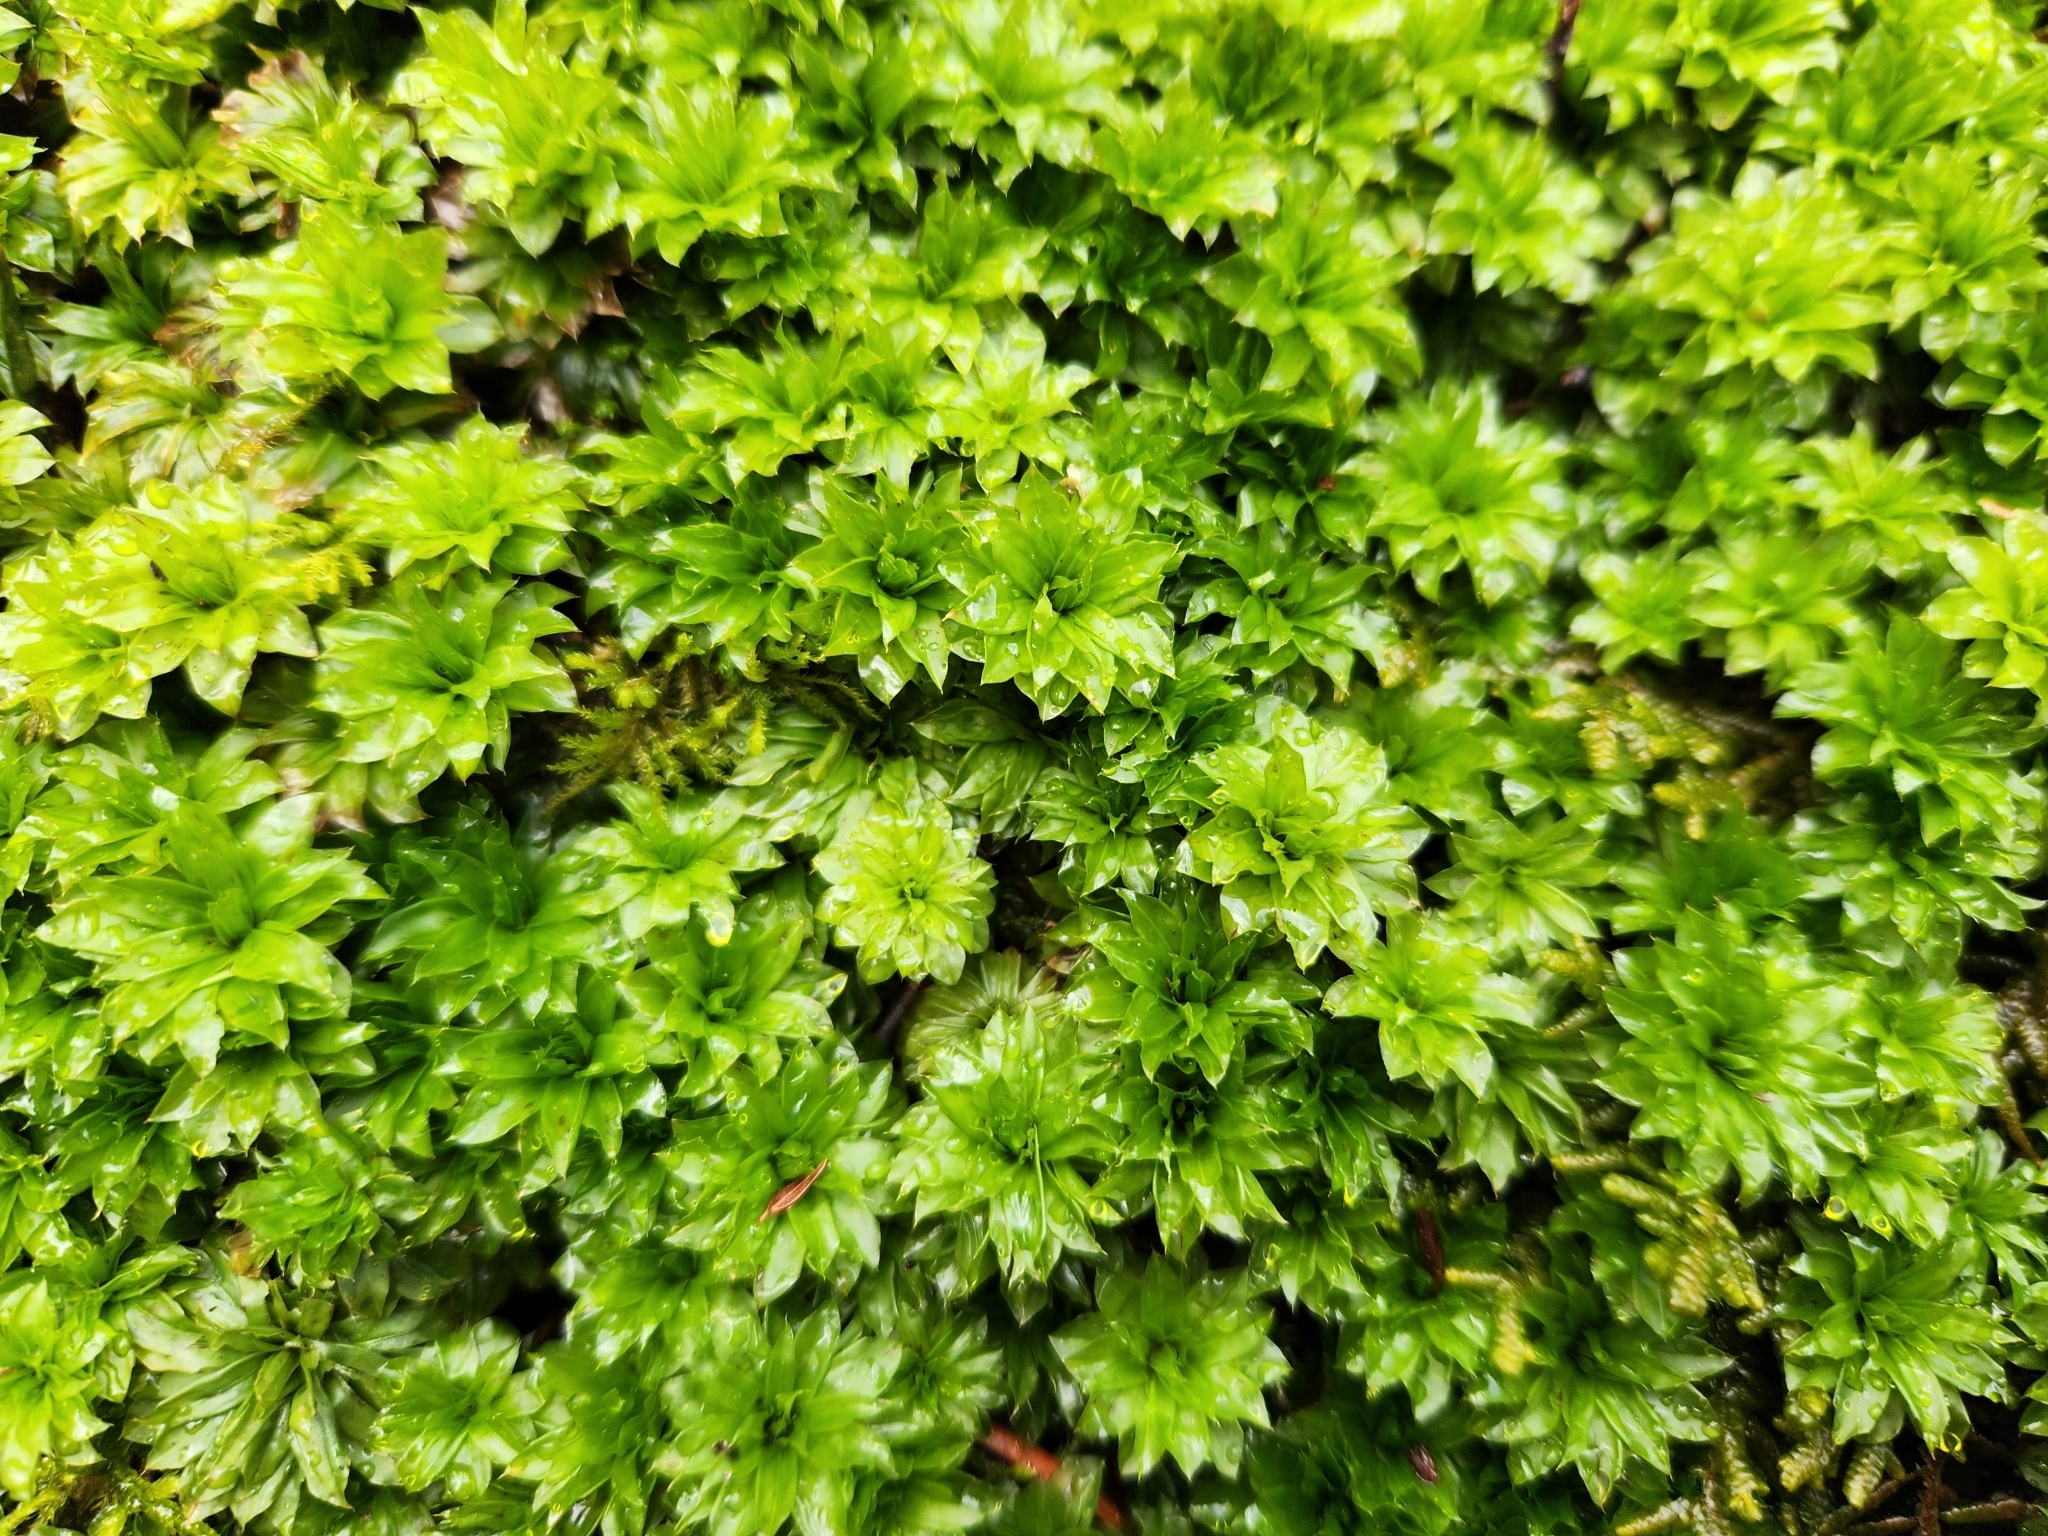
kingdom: Plantae
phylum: Bryophyta
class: Bryopsida
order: Bryales
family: Bryaceae
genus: Rhodobryum
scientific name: Rhodobryum ontariense
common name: Ontario rhodobryum moss
